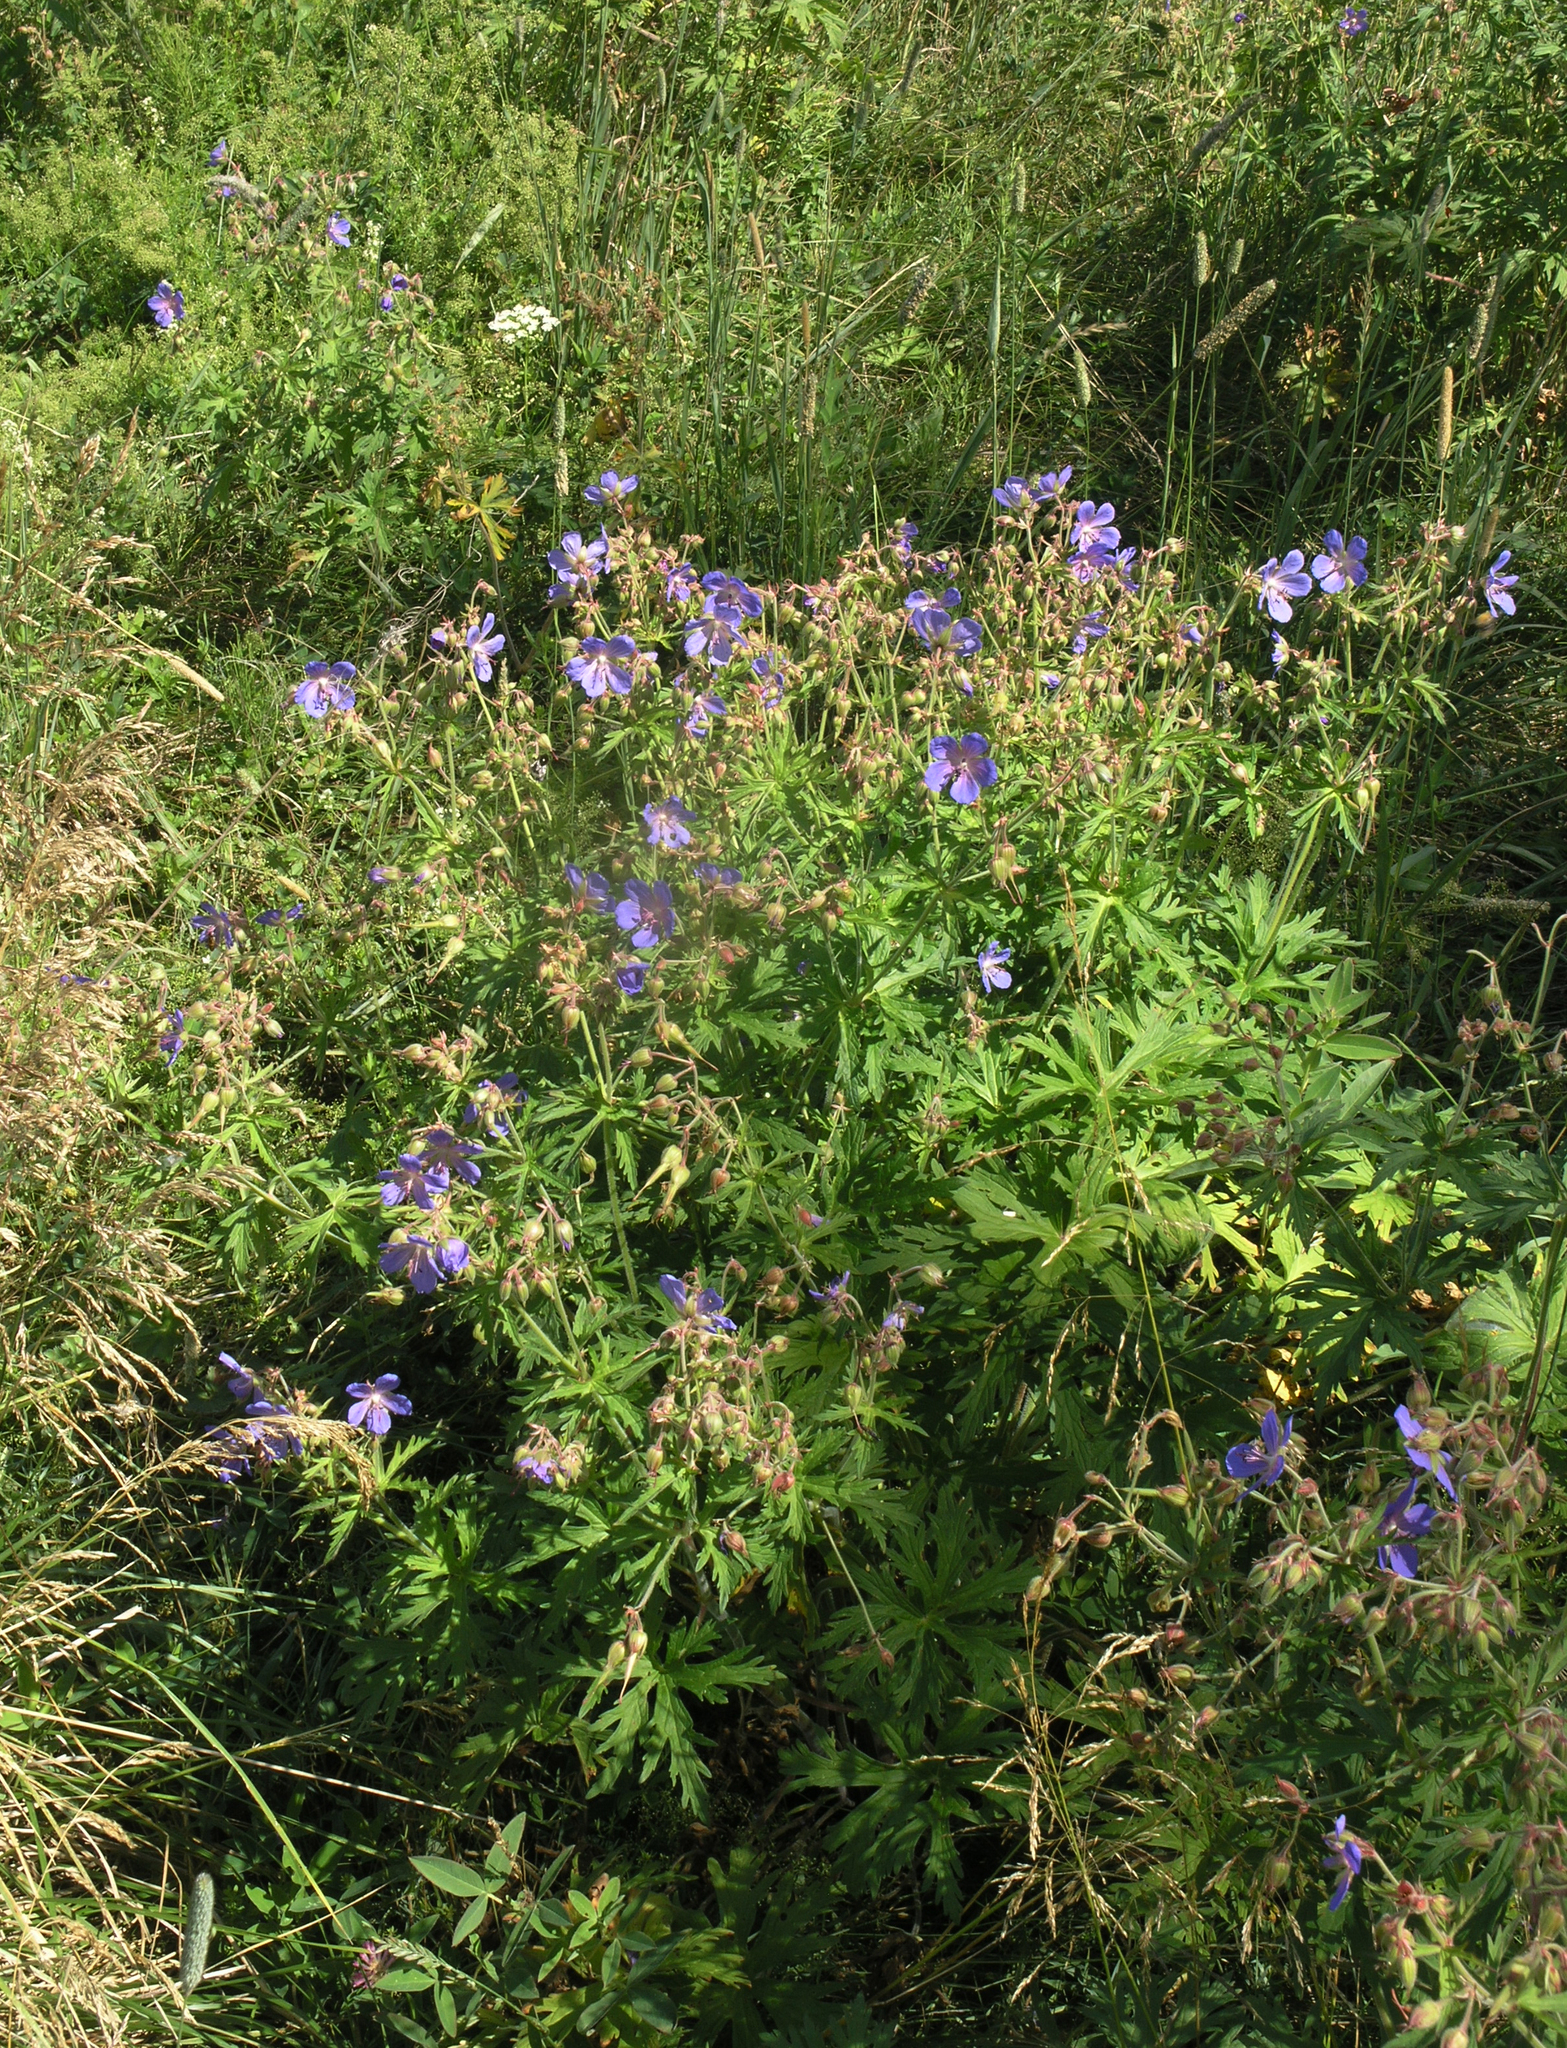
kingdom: Plantae
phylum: Tracheophyta
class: Magnoliopsida
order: Geraniales
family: Geraniaceae
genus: Geranium
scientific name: Geranium pratense
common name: Meadow crane's-bill
